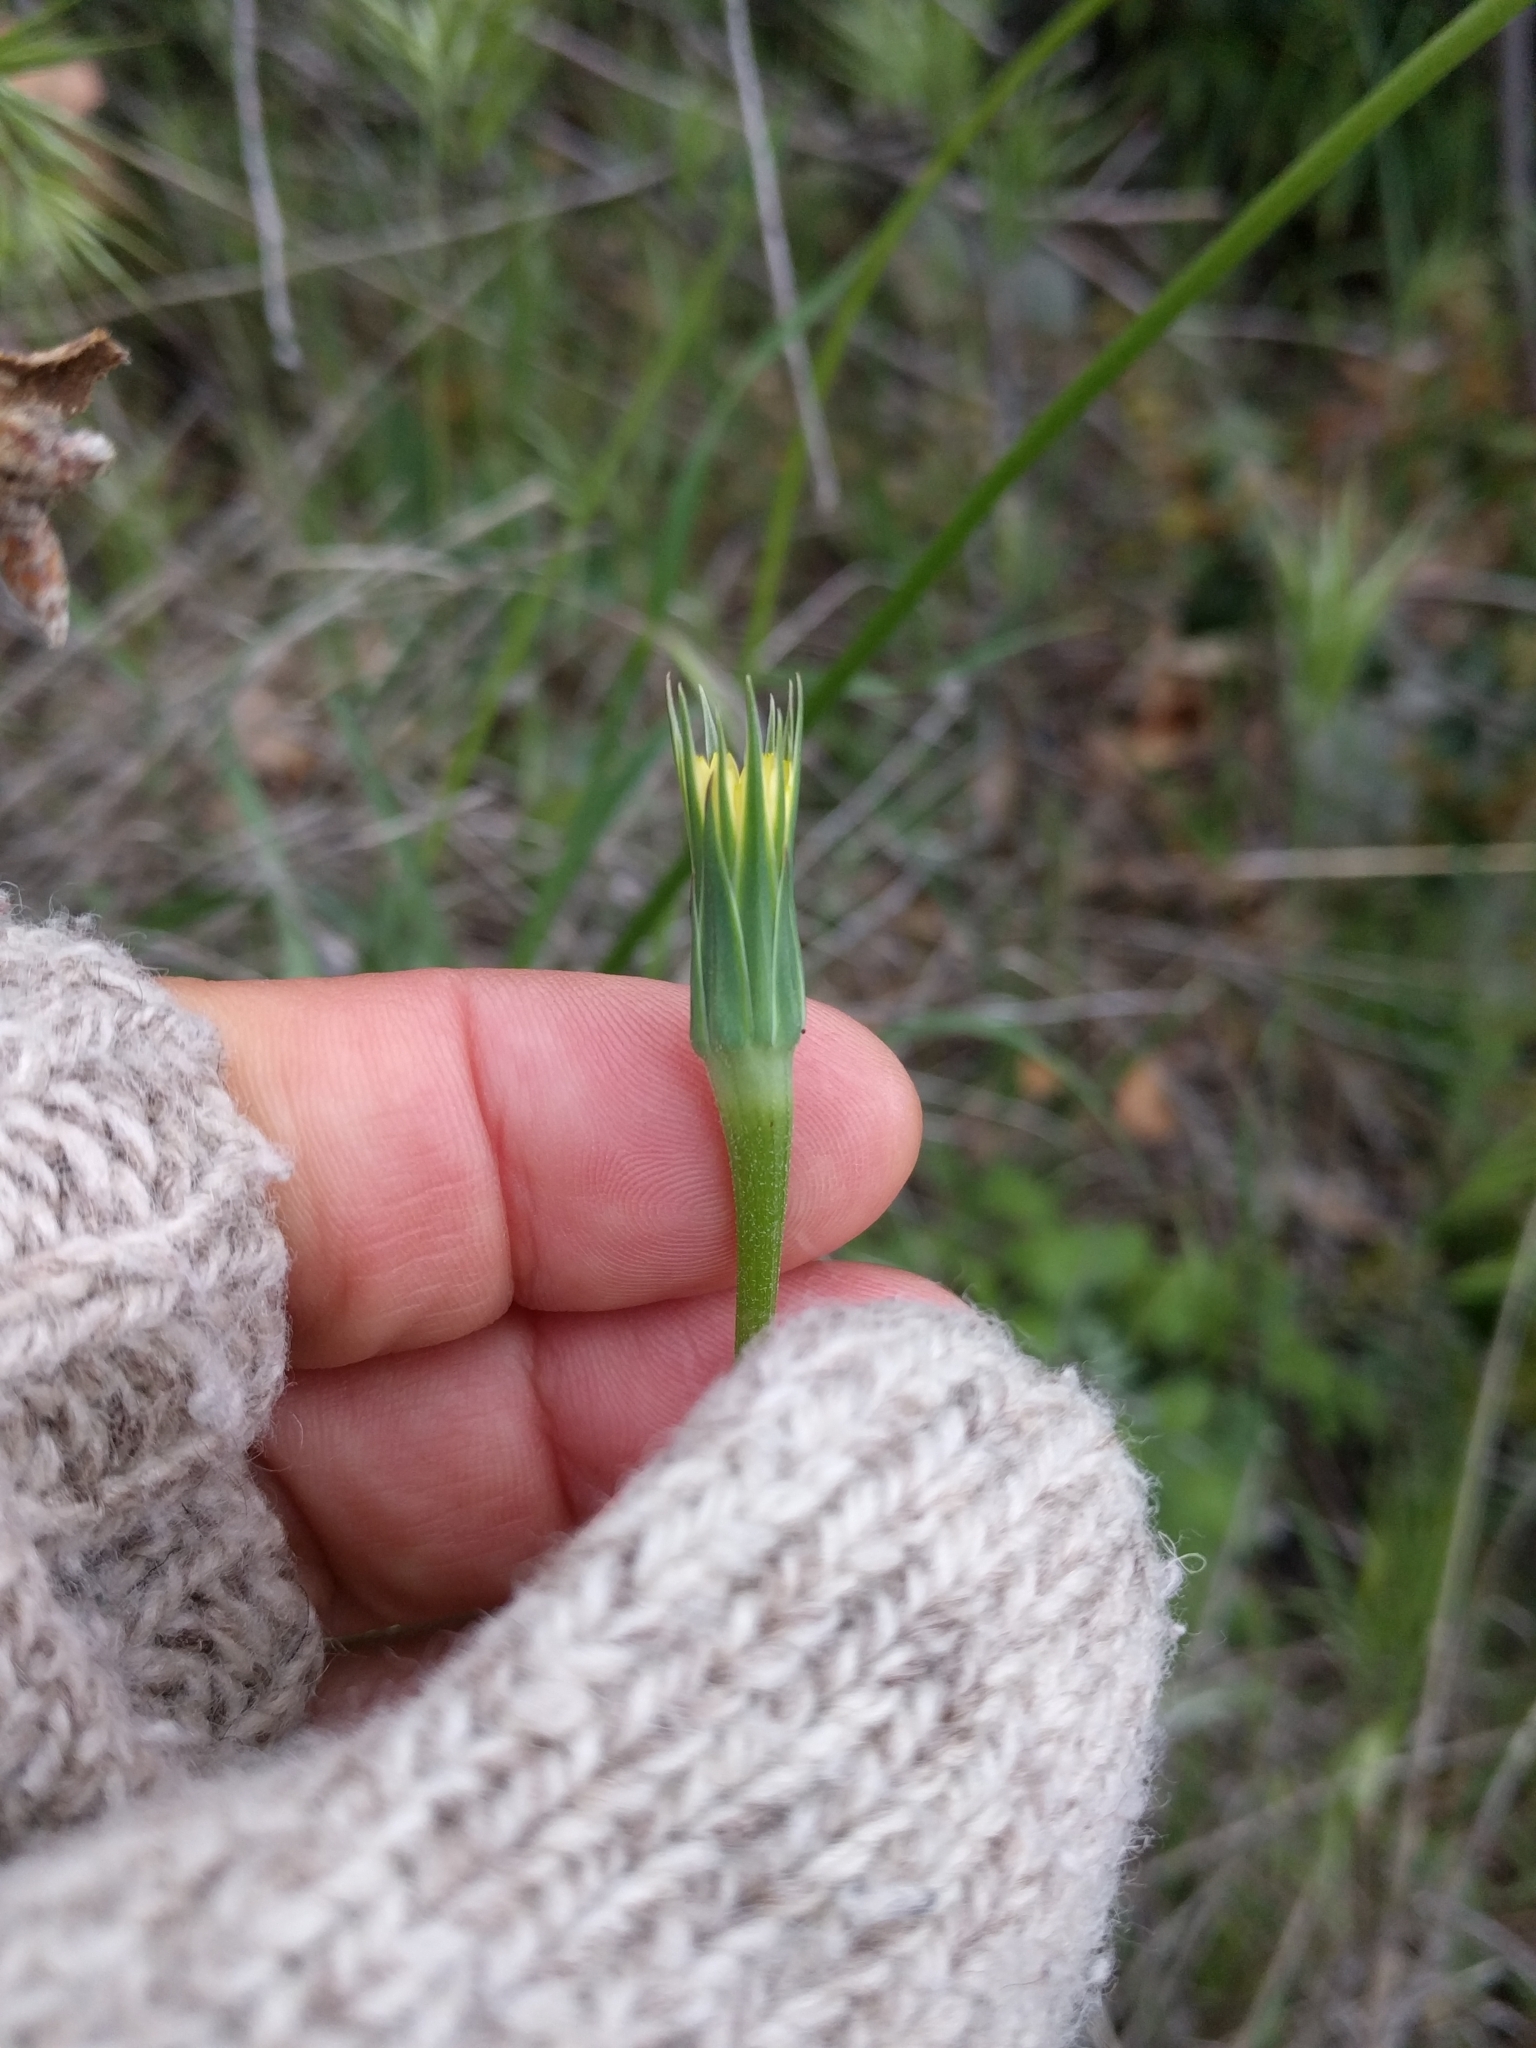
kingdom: Plantae
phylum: Tracheophyta
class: Magnoliopsida
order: Asterales
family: Asteraceae
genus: Microseris
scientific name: Microseris lindleyi
